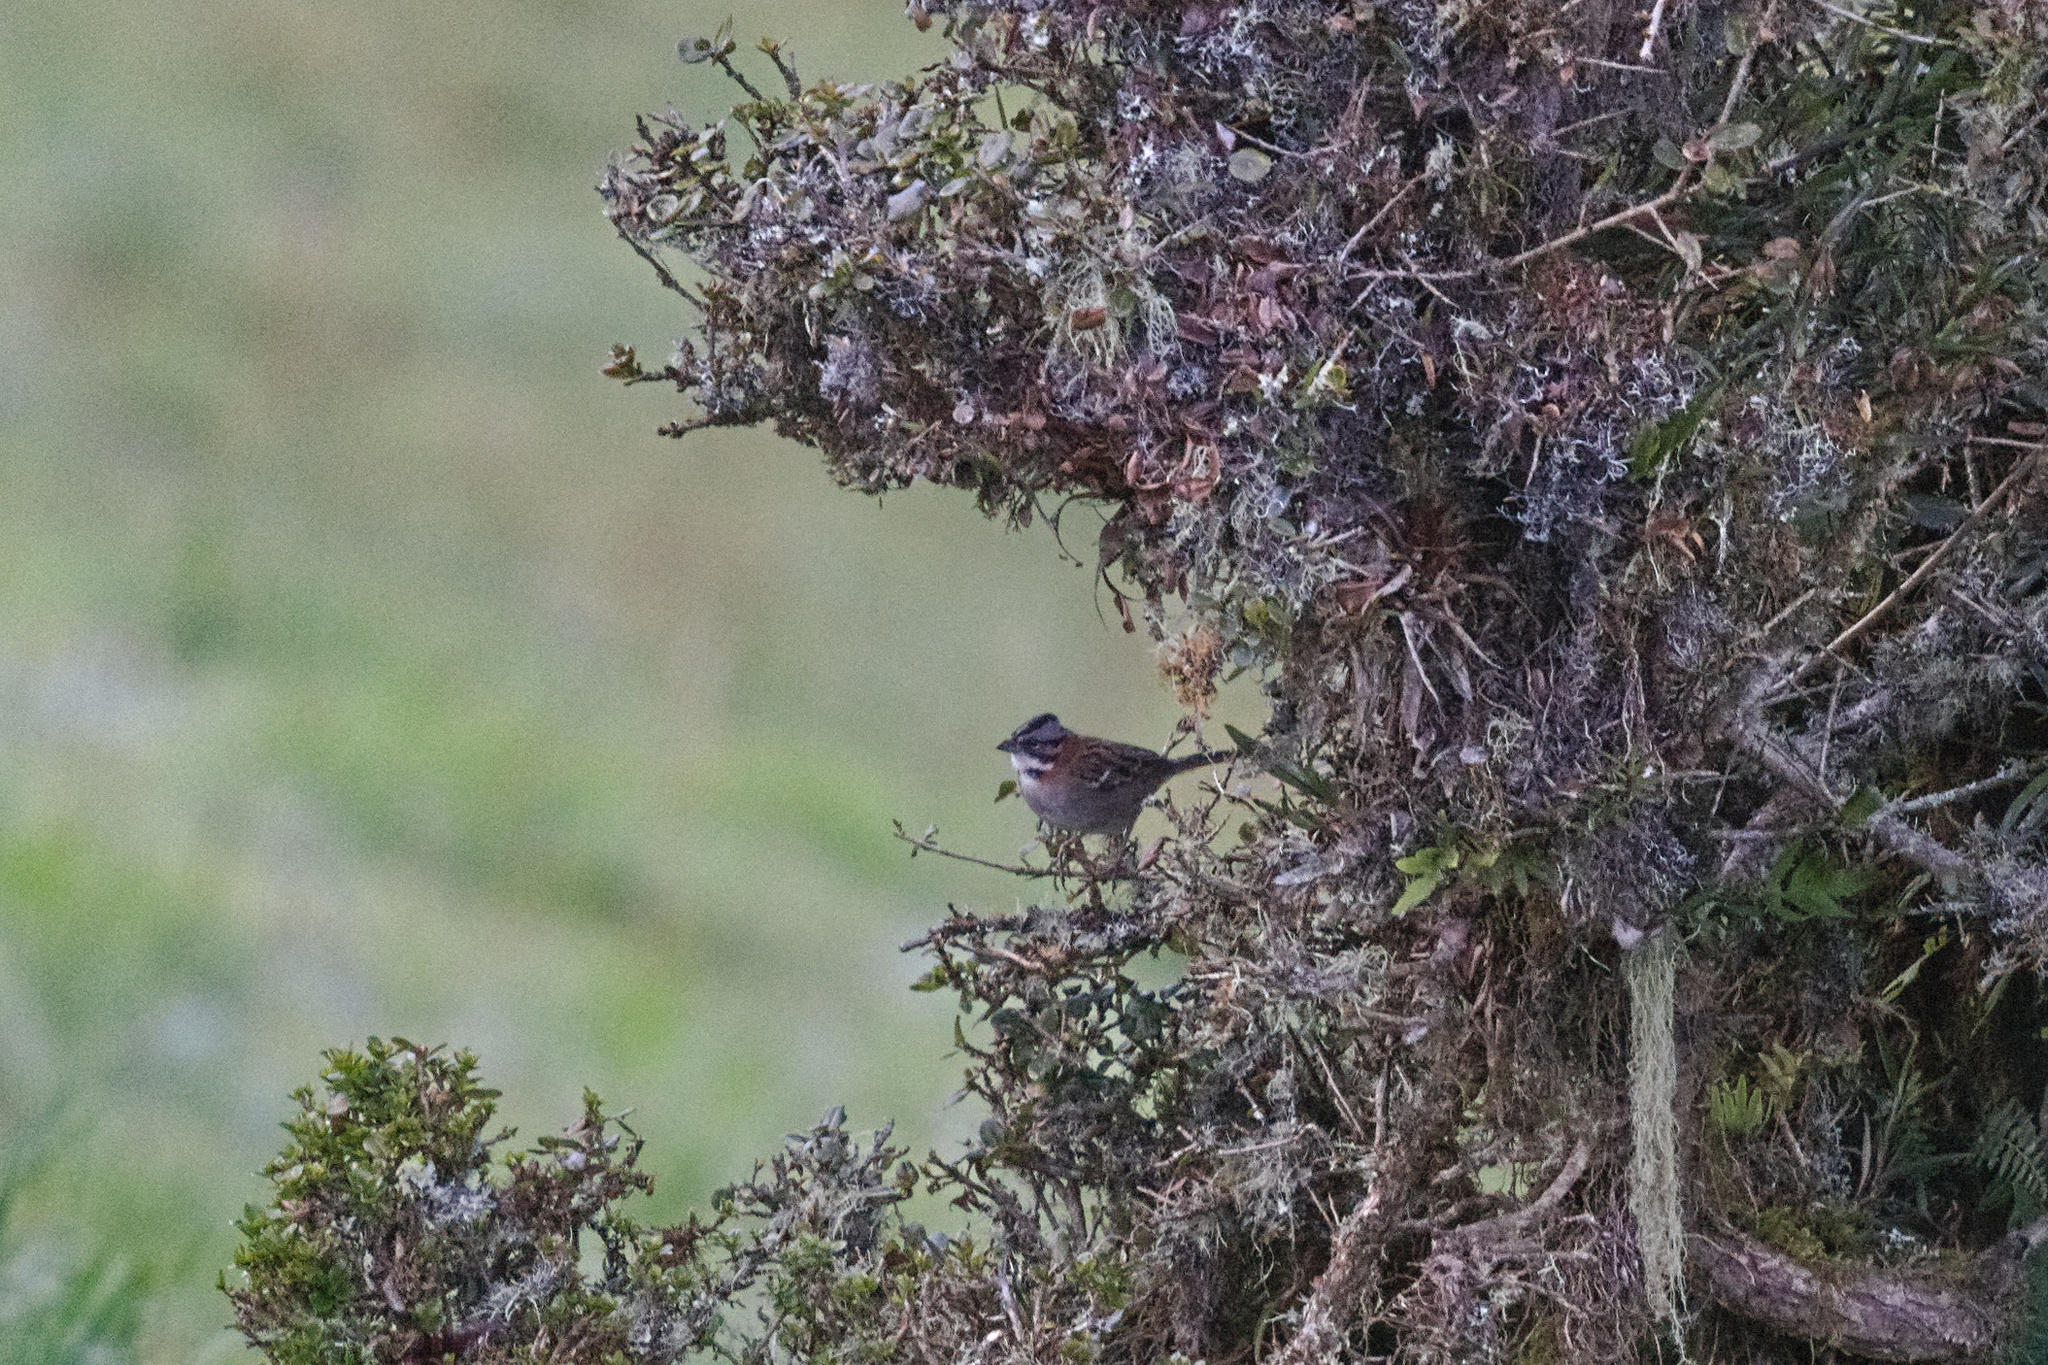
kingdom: Animalia
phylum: Chordata
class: Aves
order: Passeriformes
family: Passerellidae
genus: Zonotrichia
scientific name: Zonotrichia capensis
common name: Rufous-collared sparrow
